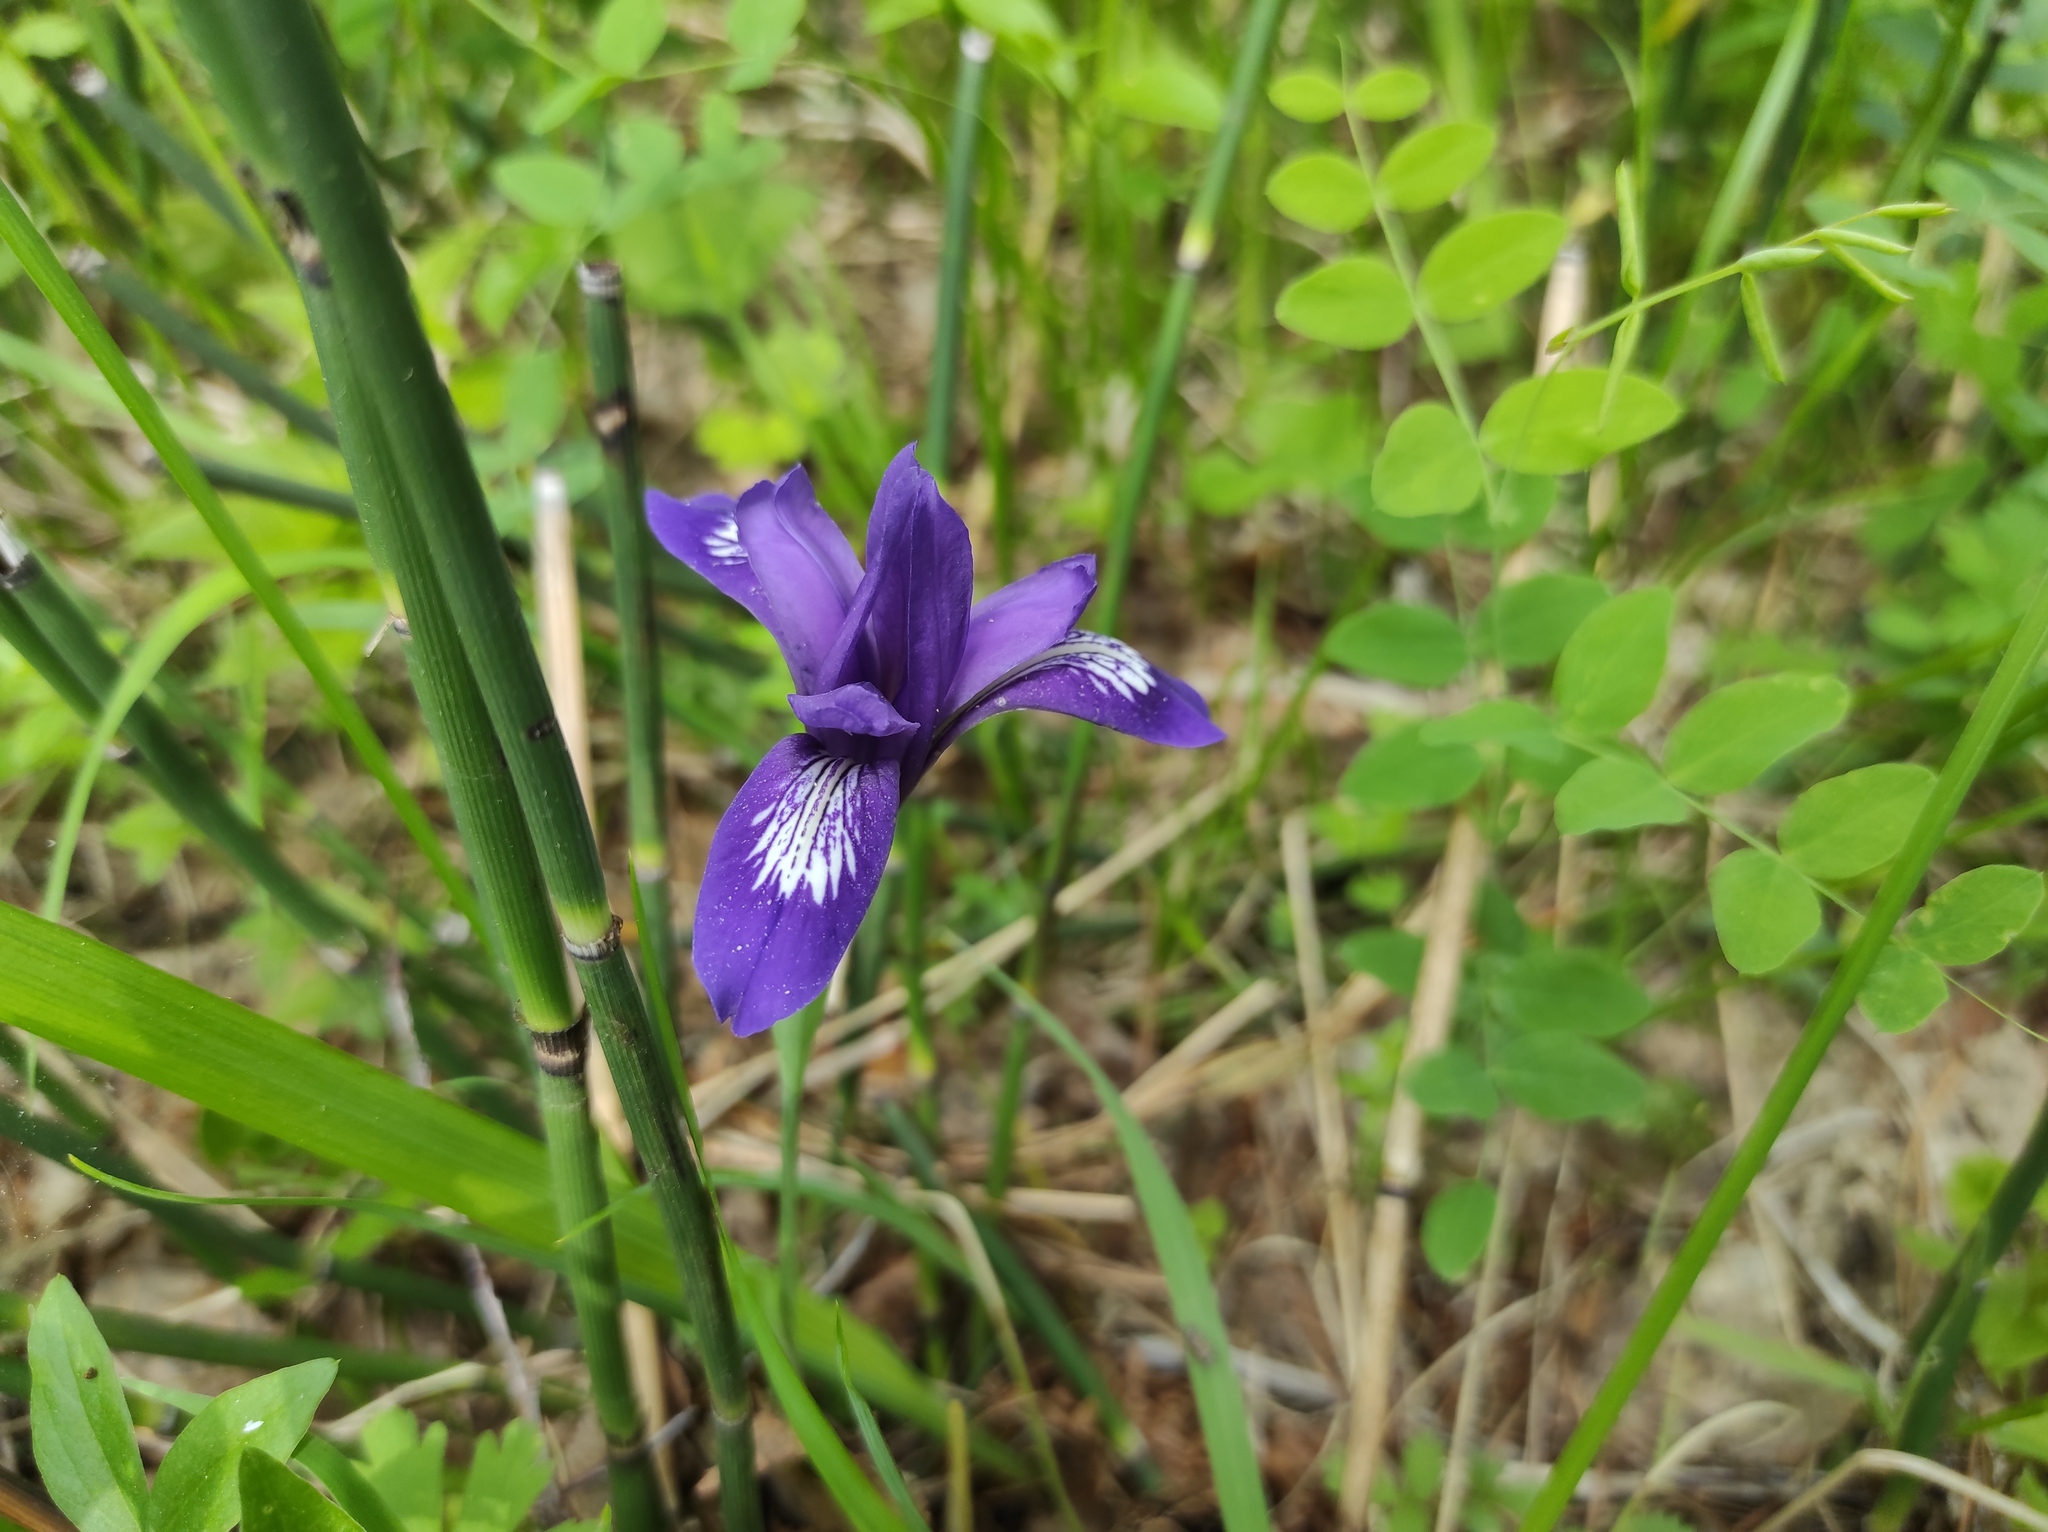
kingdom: Plantae
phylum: Tracheophyta
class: Liliopsida
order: Asparagales
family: Iridaceae
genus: Iris
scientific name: Iris ruthenica
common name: Purple-bract iris
